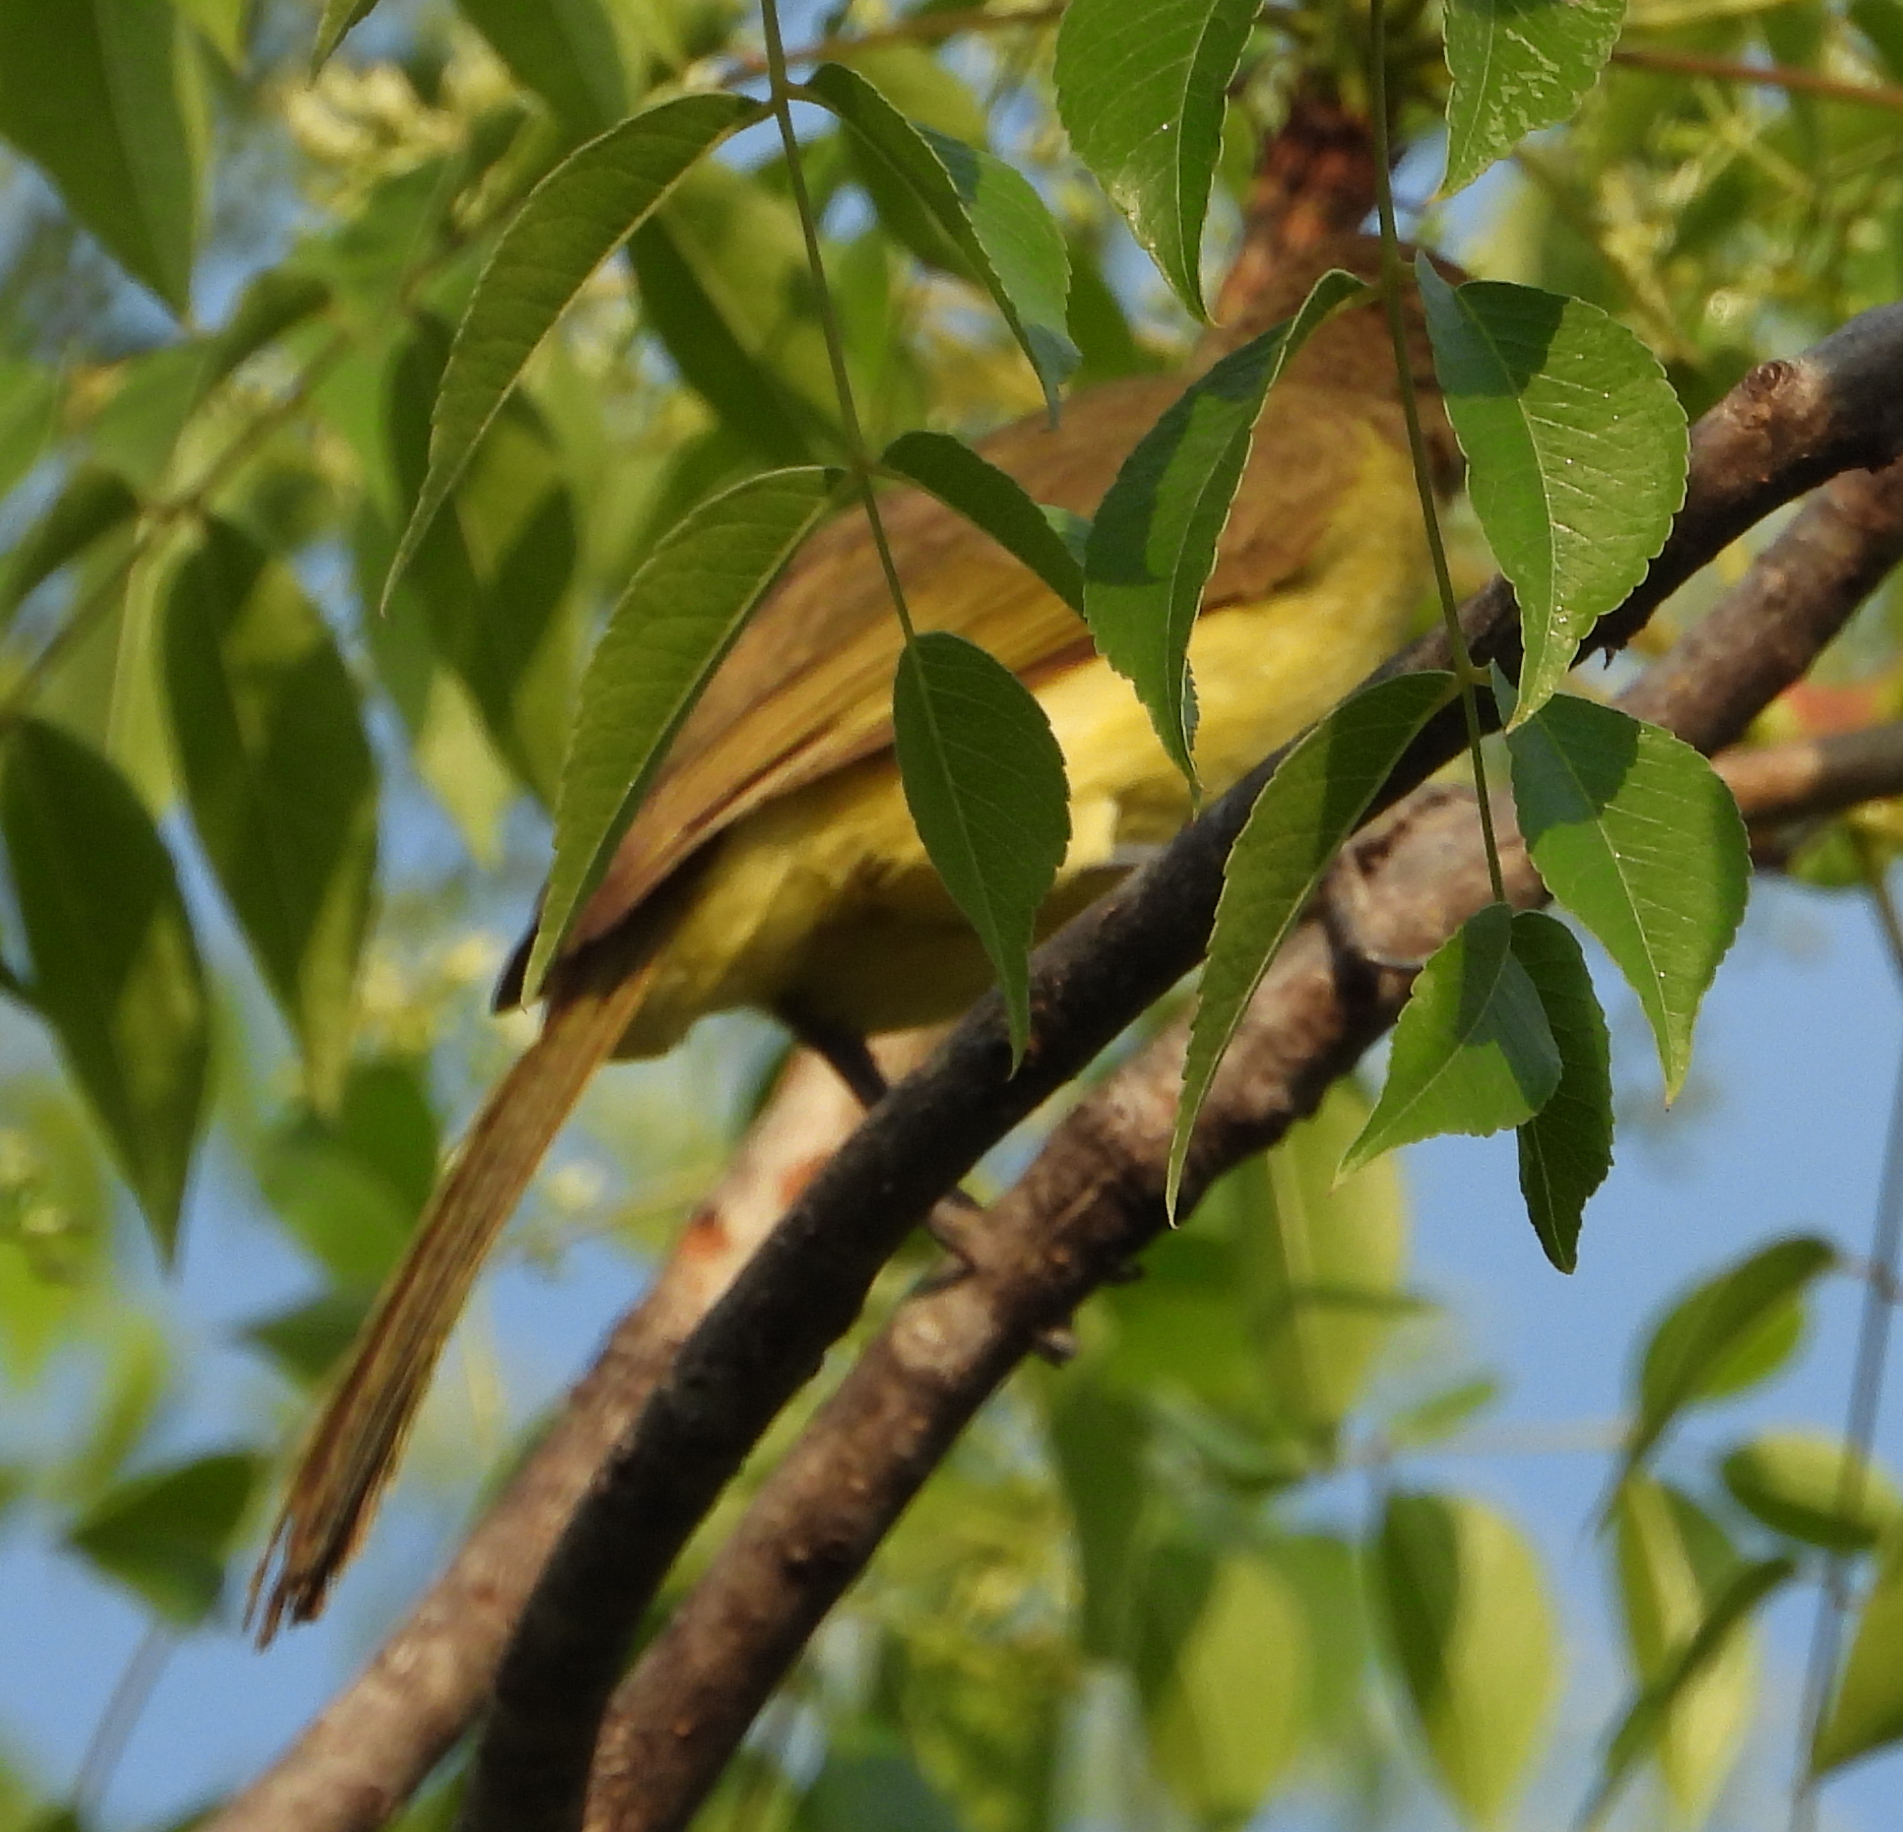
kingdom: Animalia
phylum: Chordata
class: Aves
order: Passeriformes
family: Pycnonotidae
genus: Chlorocichla
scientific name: Chlorocichla flaviventris
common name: Yellow-bellied greenbul
